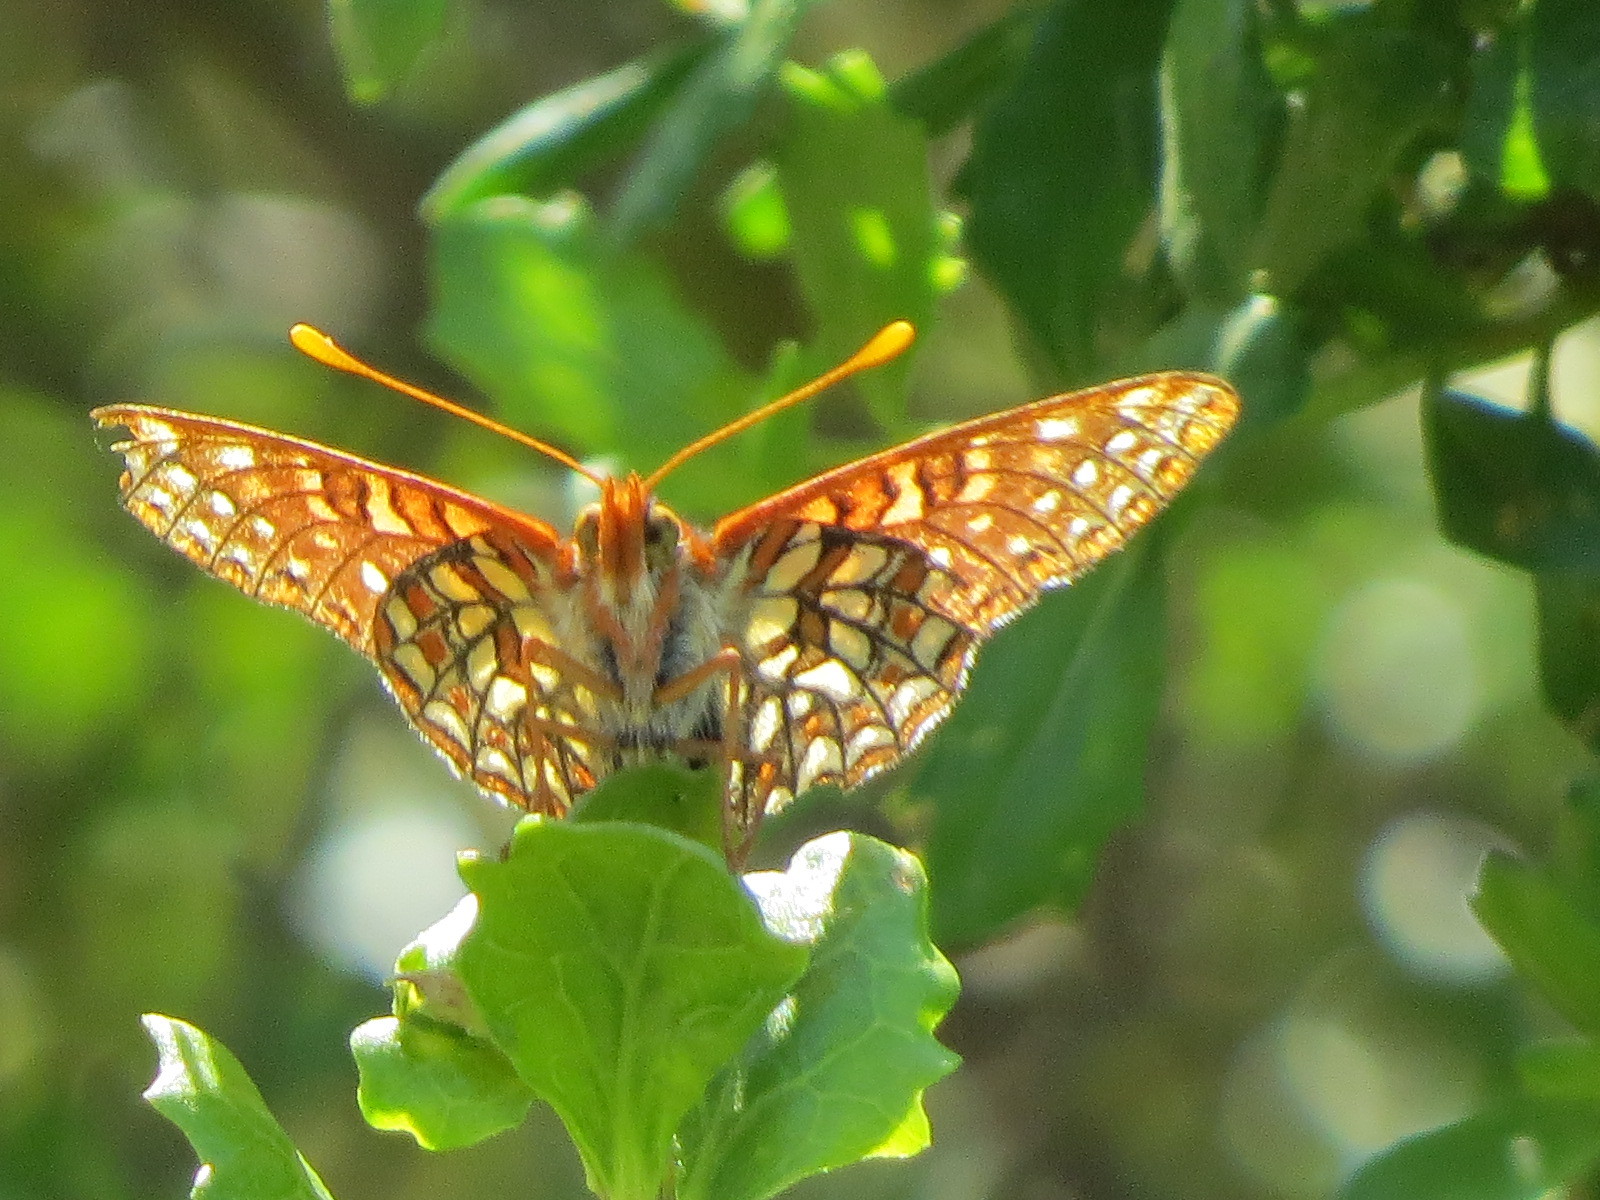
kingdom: Animalia
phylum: Arthropoda
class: Insecta
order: Lepidoptera
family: Nymphalidae
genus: Occidryas
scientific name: Occidryas chalcedona
